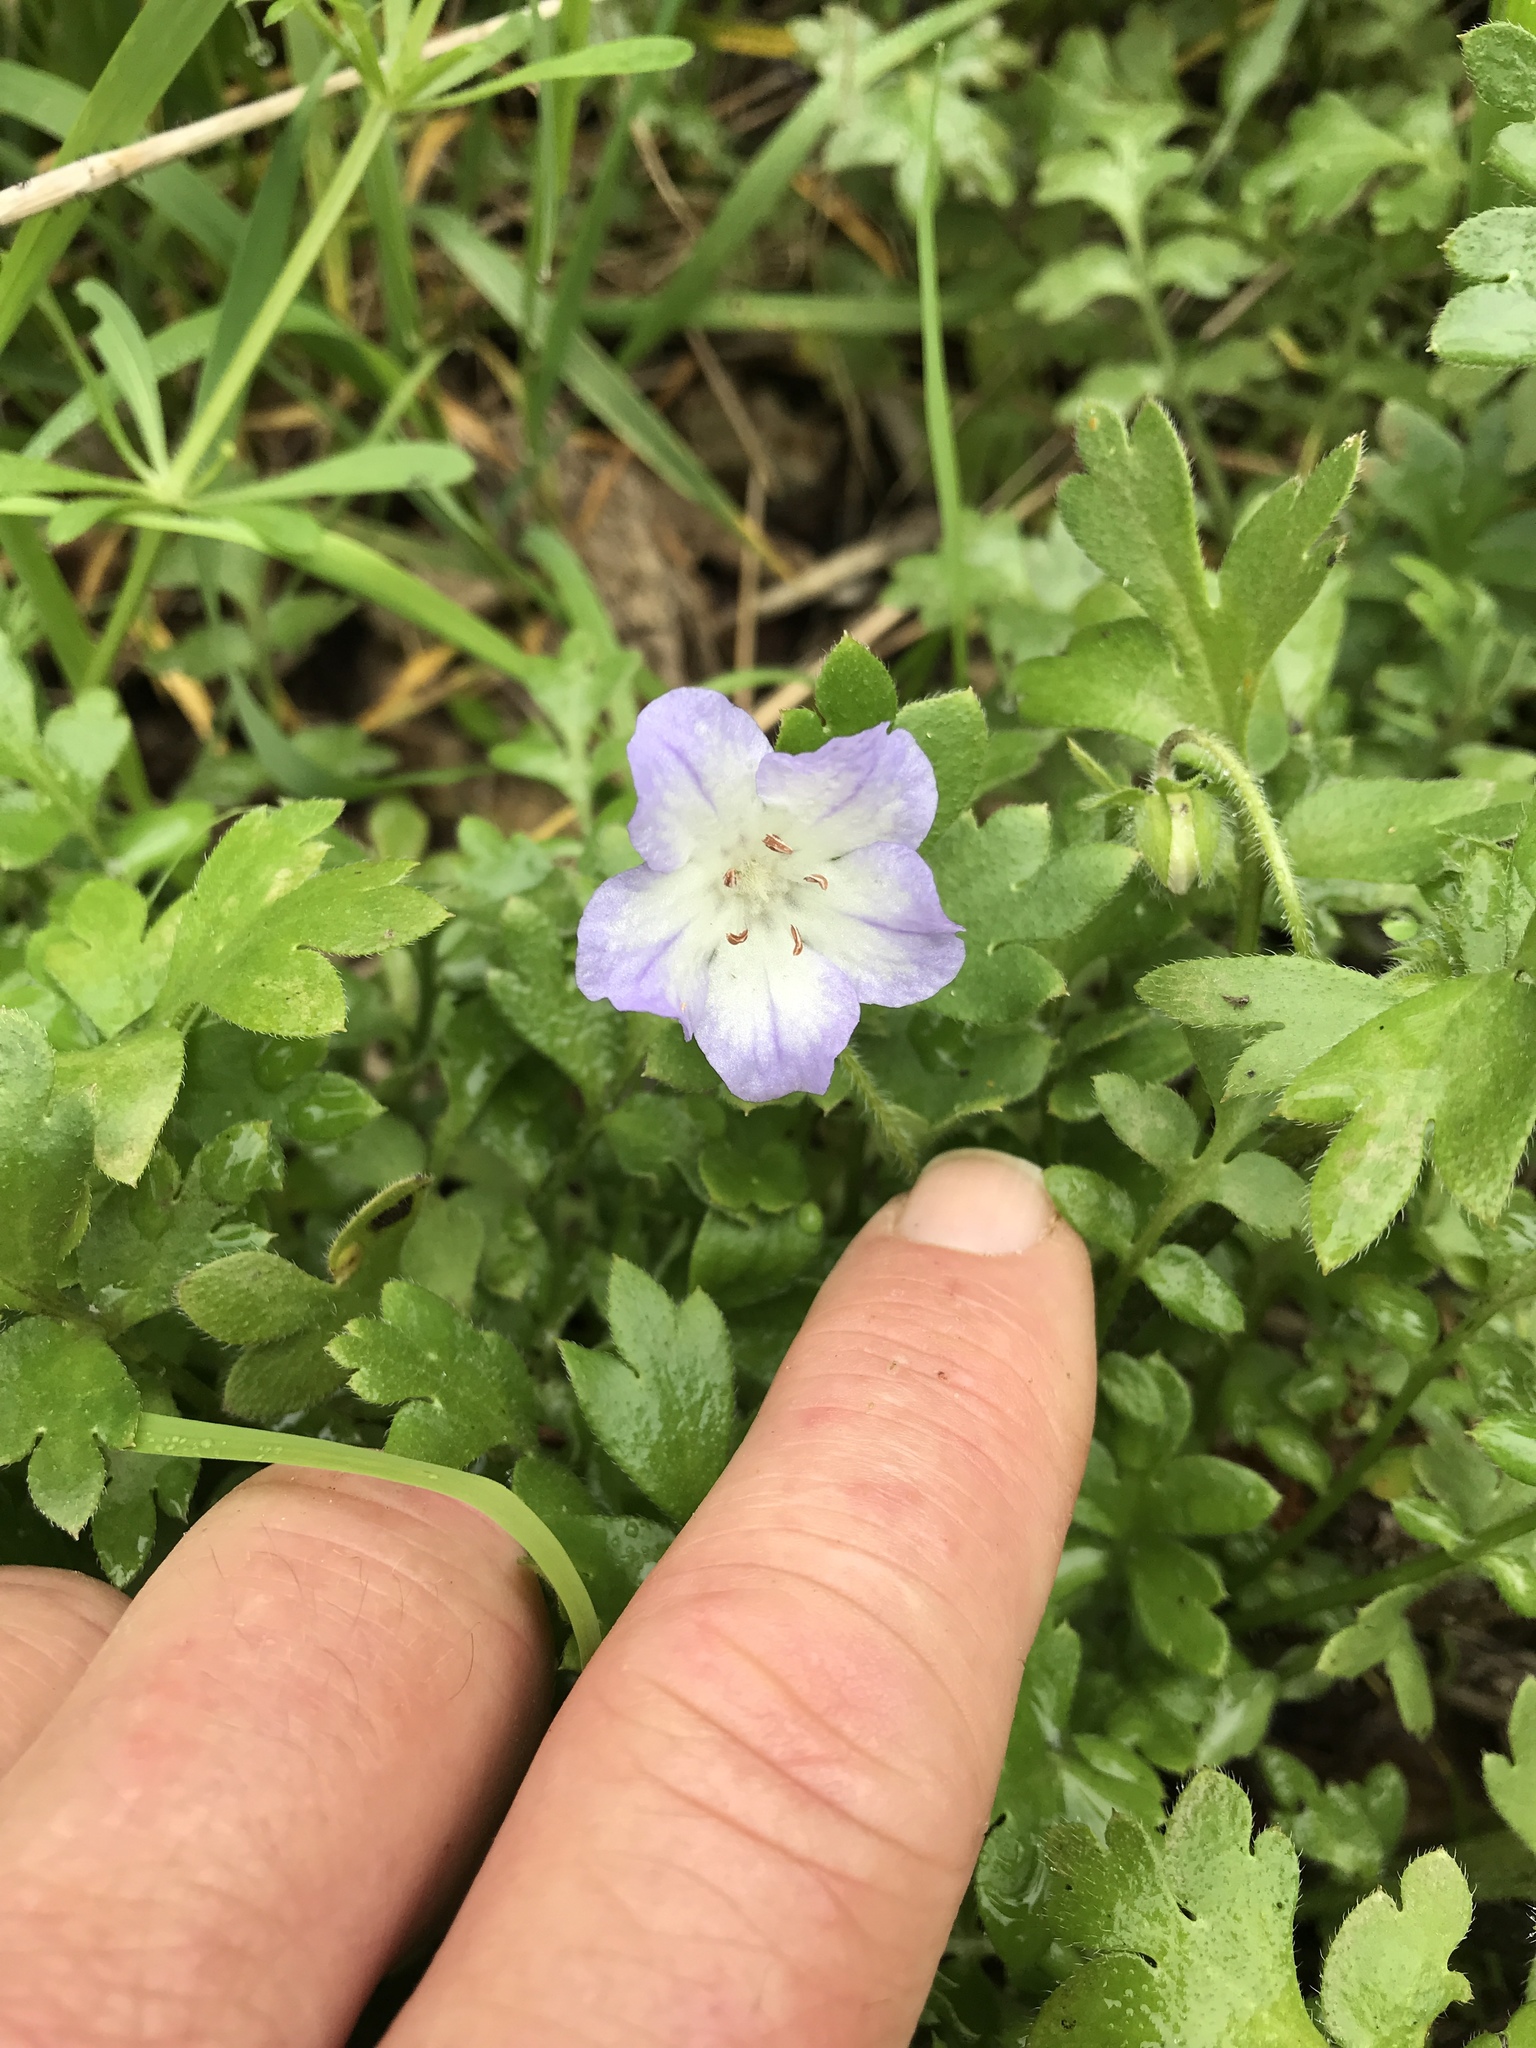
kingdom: Plantae
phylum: Tracheophyta
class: Magnoliopsida
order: Boraginales
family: Hydrophyllaceae
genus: Nemophila
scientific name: Nemophila phacelioides
